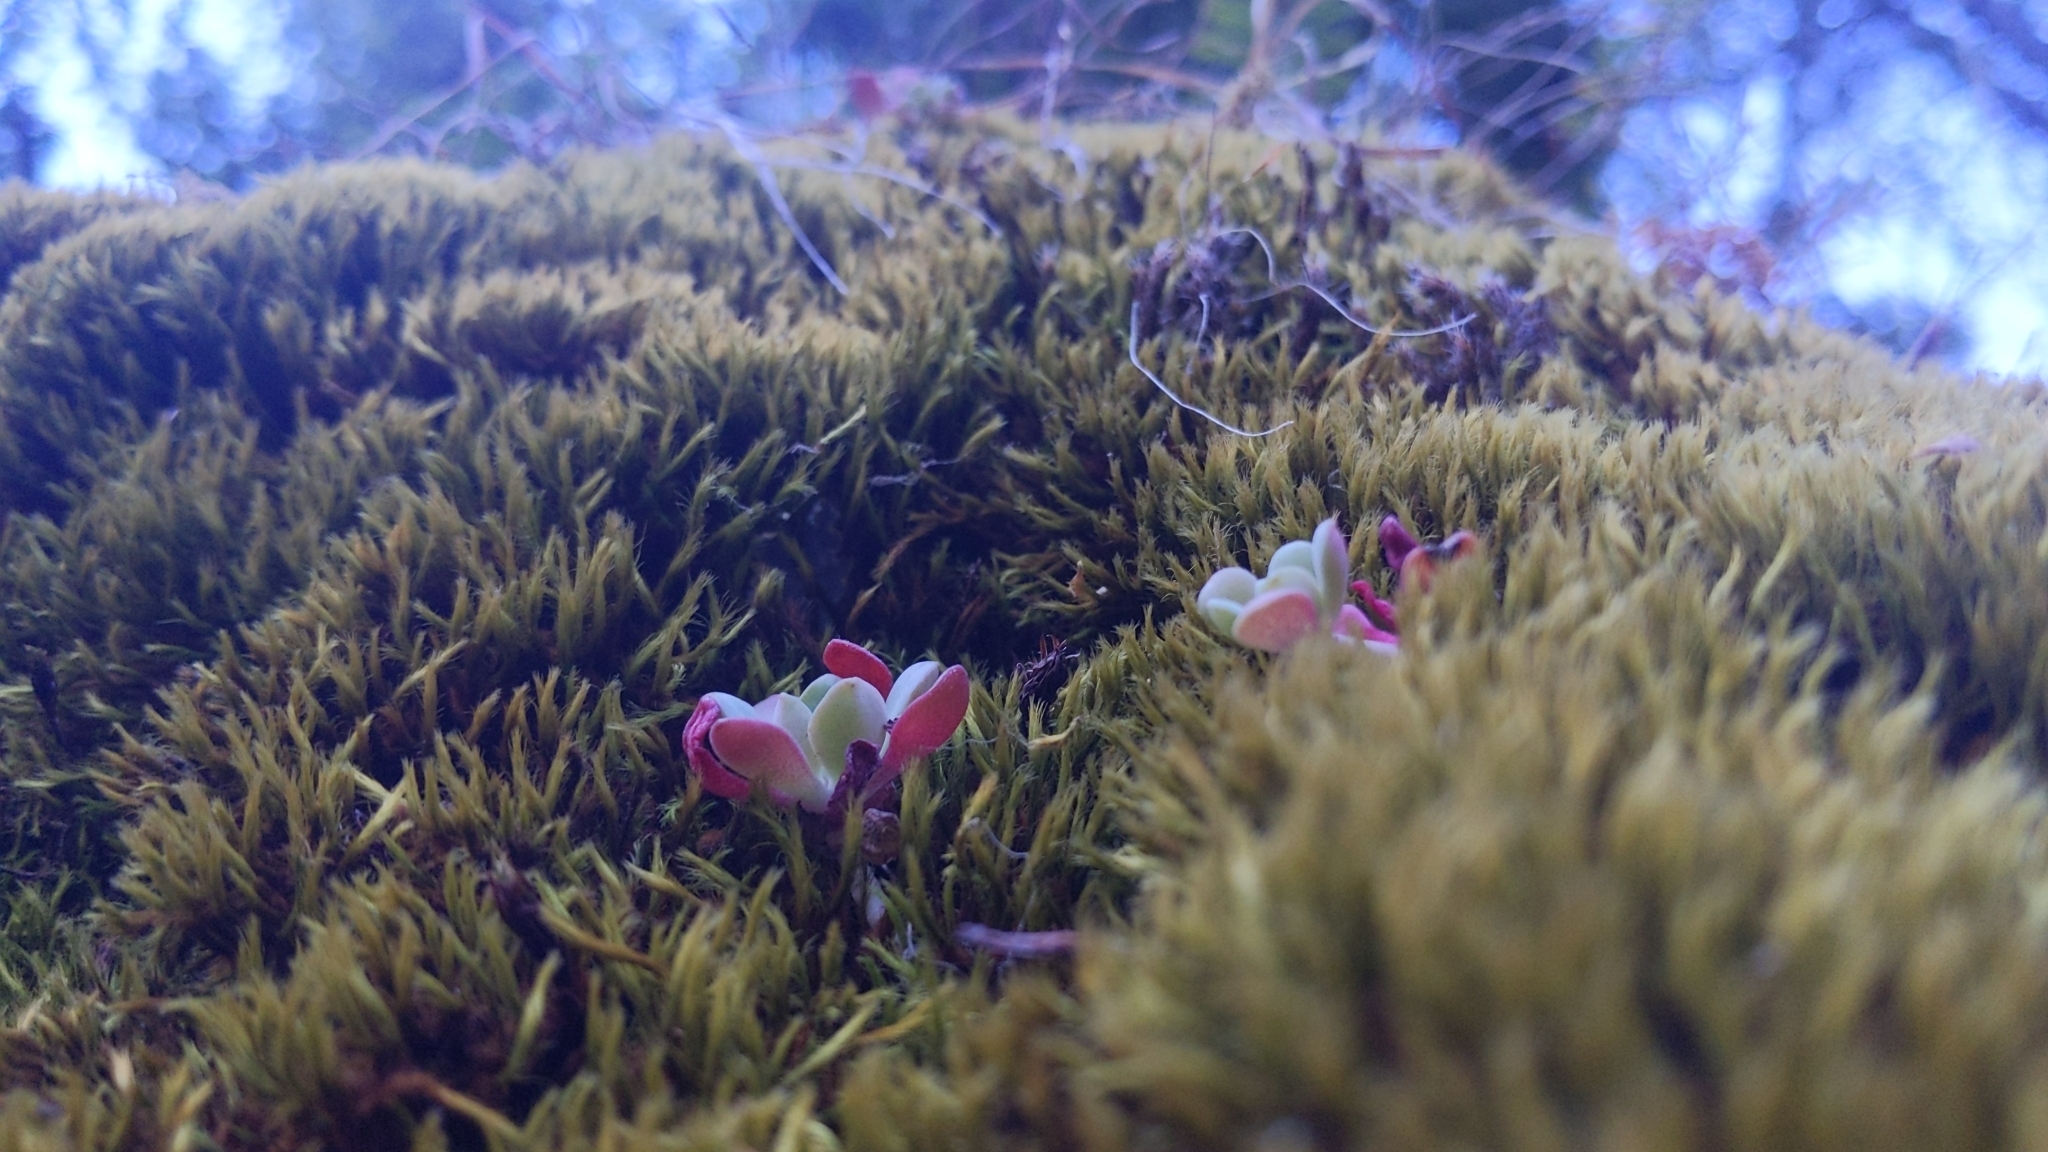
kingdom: Plantae
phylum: Tracheophyta
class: Magnoliopsida
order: Saxifragales
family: Crassulaceae
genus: Sedum
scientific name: Sedum spathulifolium
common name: Colorado stonecrop
